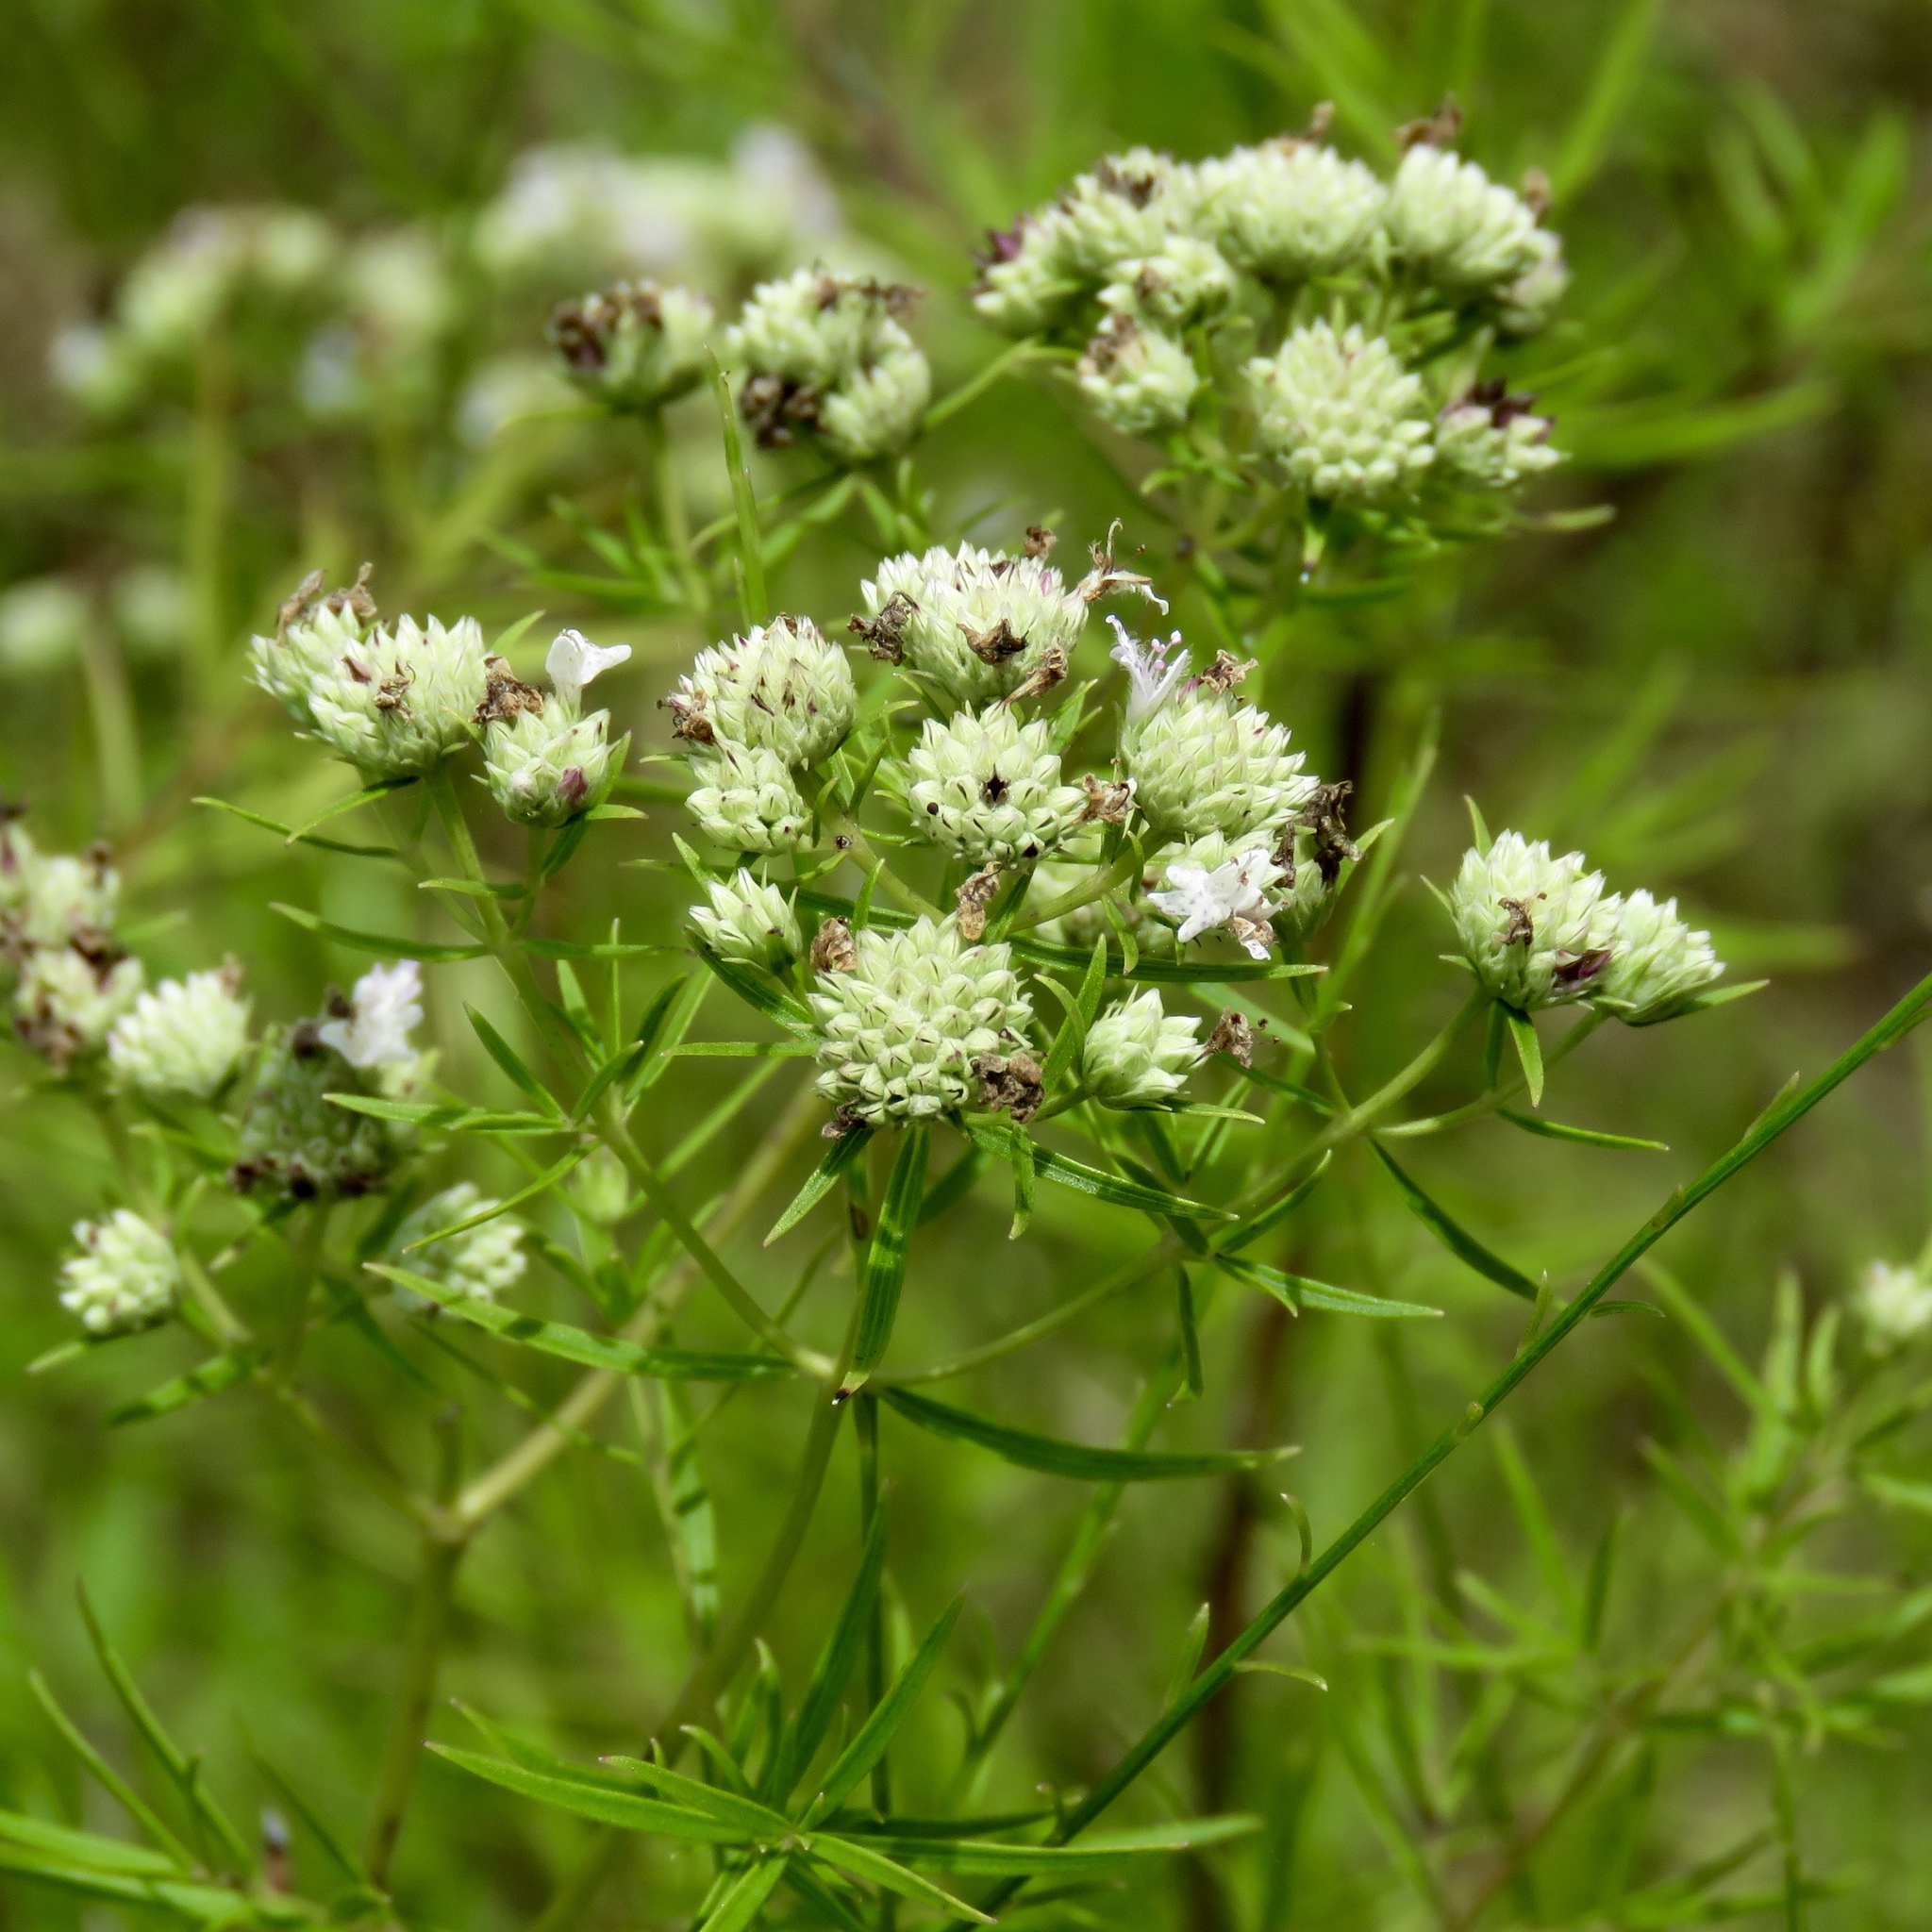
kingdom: Plantae
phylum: Tracheophyta
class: Magnoliopsida
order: Lamiales
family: Lamiaceae
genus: Pycnanthemum
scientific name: Pycnanthemum tenuifolium
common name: Narrow-leaf mountain-mint
